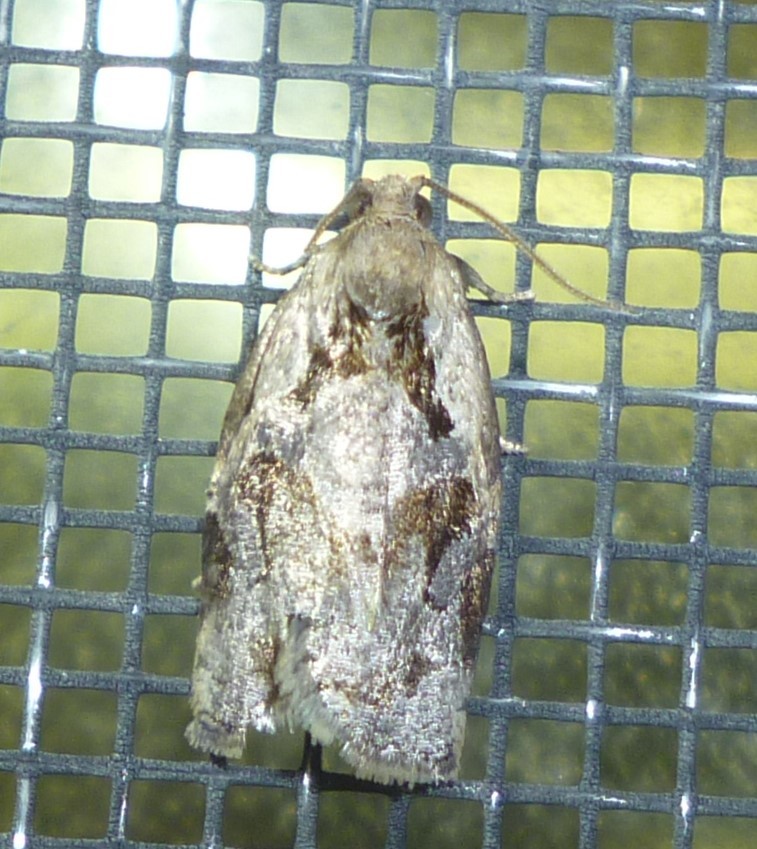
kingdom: Animalia
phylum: Arthropoda
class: Insecta
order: Lepidoptera
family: Tortricidae
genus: Archips
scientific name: Archips grisea
